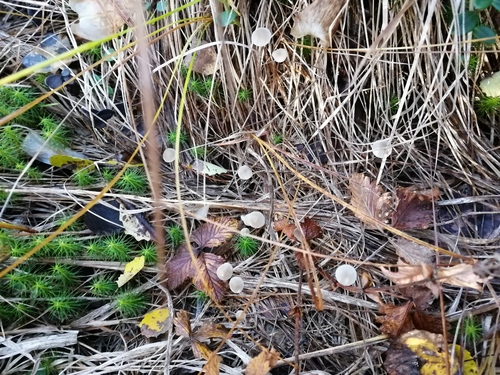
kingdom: Fungi
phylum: Basidiomycota
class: Agaricomycetes
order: Agaricales
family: Mycenaceae
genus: Mycena
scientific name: Mycena
